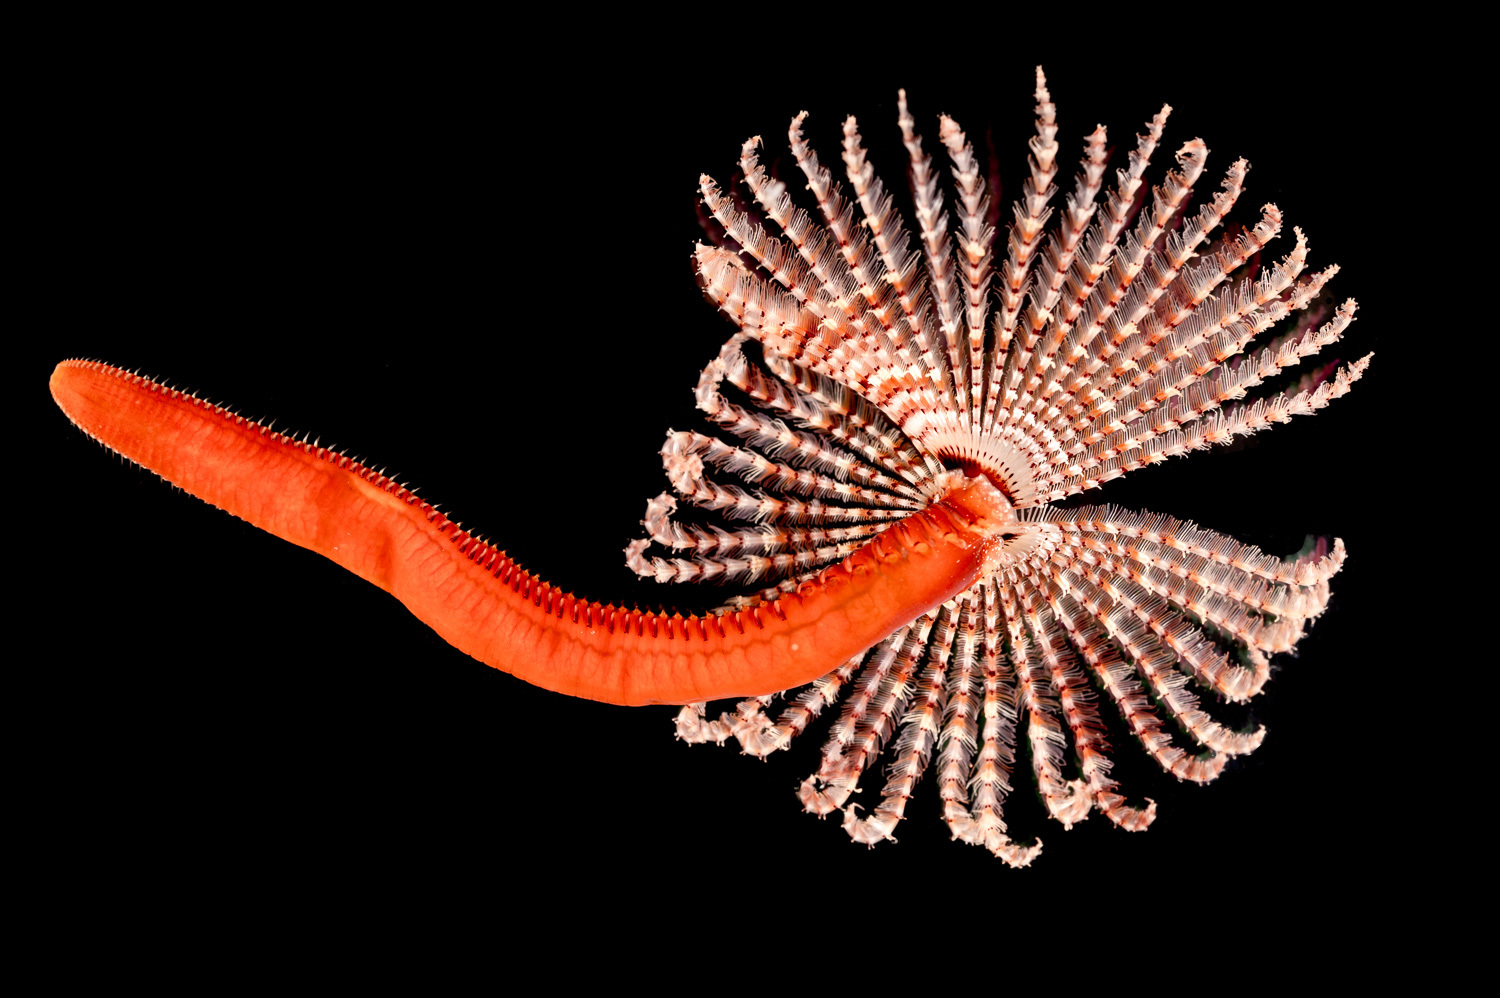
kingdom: Animalia
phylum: Annelida
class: Polychaeta
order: Sabellida
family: Sabellidae
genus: Branchiomma
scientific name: Branchiomma bombyx
